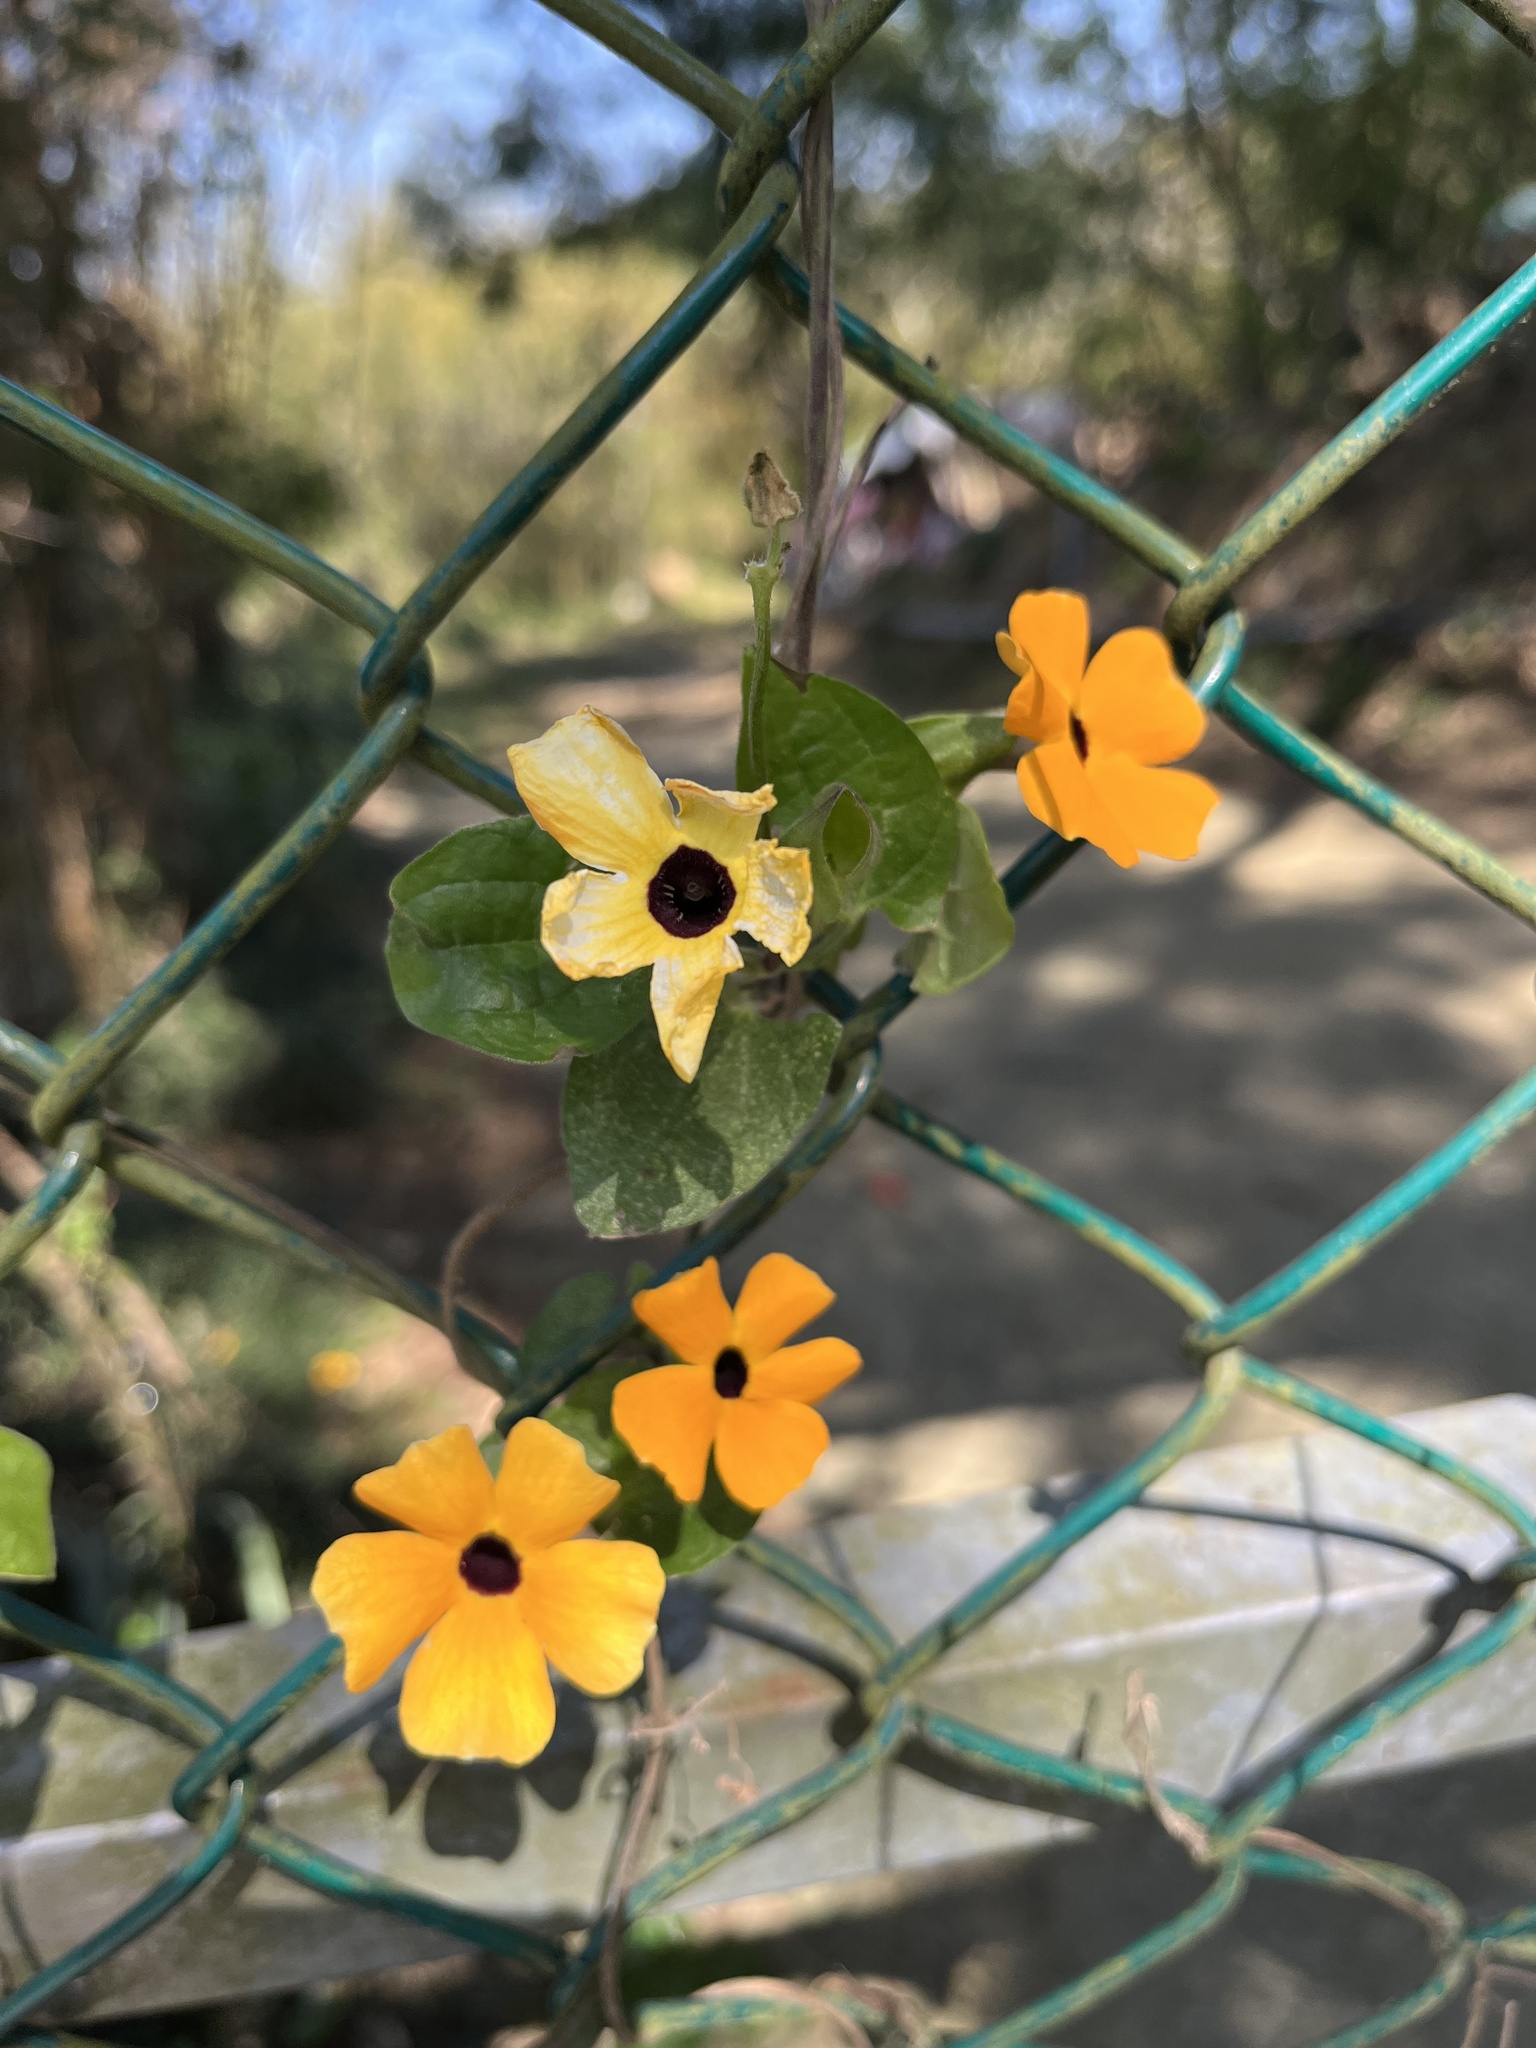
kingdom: Plantae
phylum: Tracheophyta
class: Magnoliopsida
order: Lamiales
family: Acanthaceae
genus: Thunbergia
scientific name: Thunbergia alata
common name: Blackeyed susan vine
